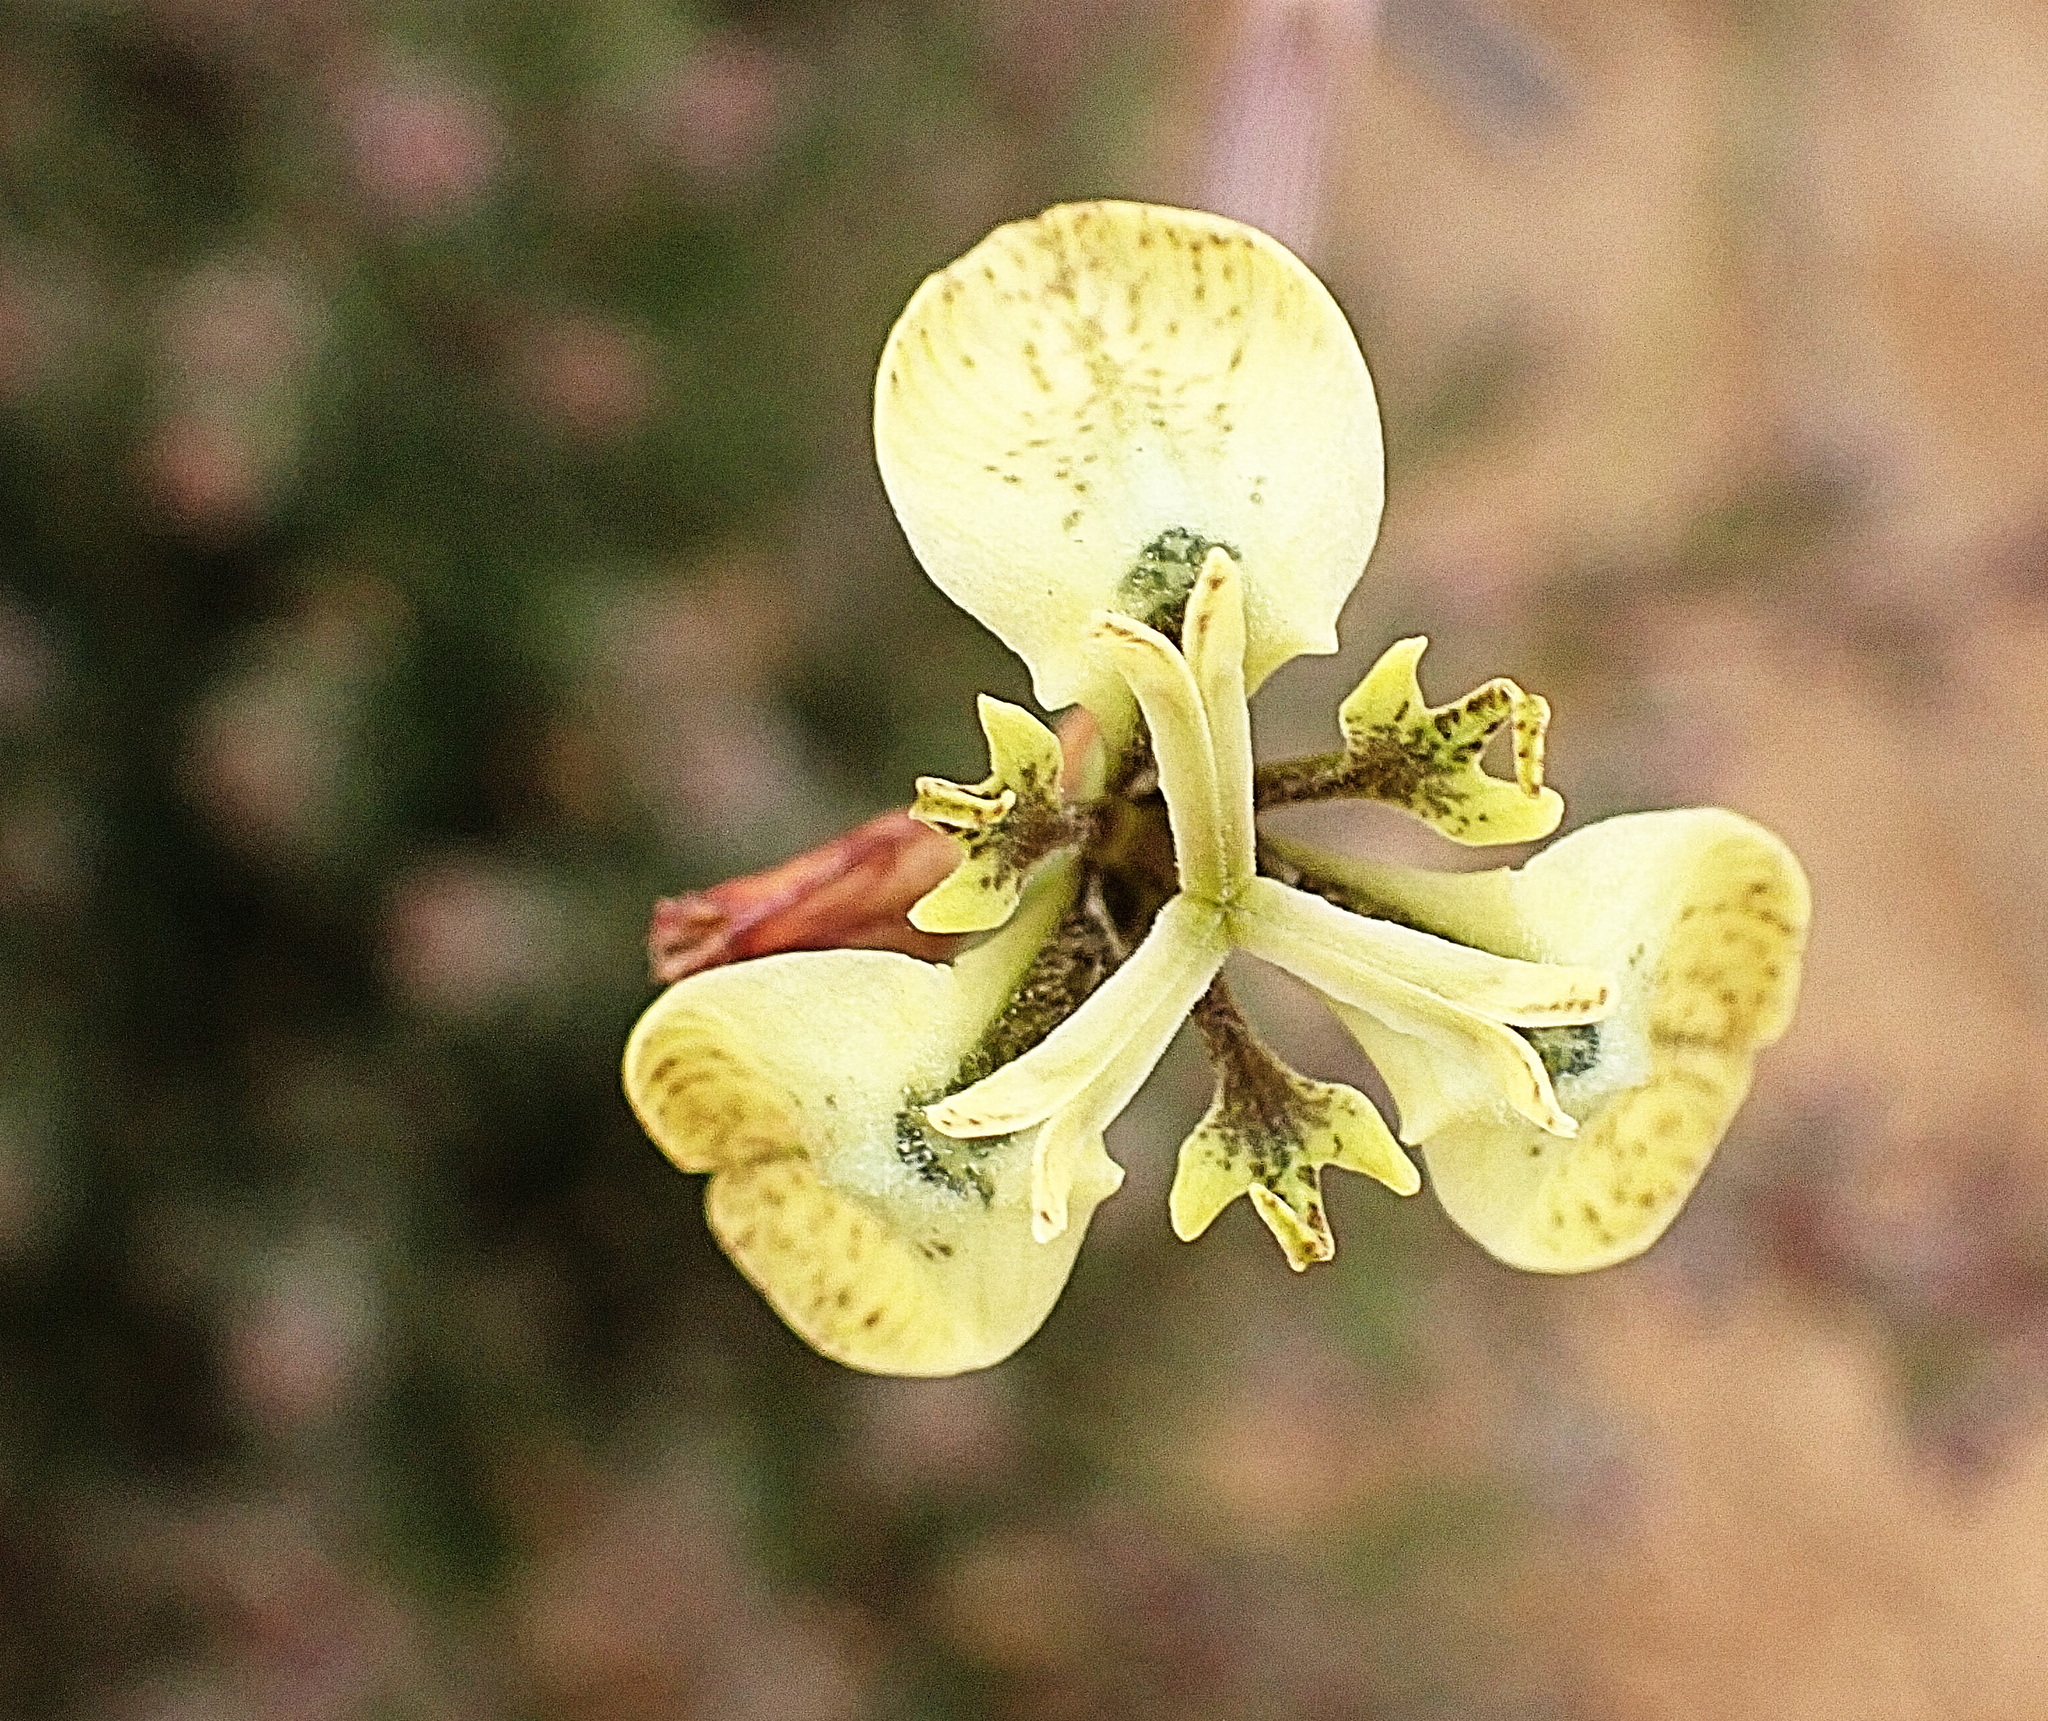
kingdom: Plantae
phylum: Tracheophyta
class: Liliopsida
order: Asparagales
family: Iridaceae
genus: Moraea
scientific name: Moraea unguiculata
